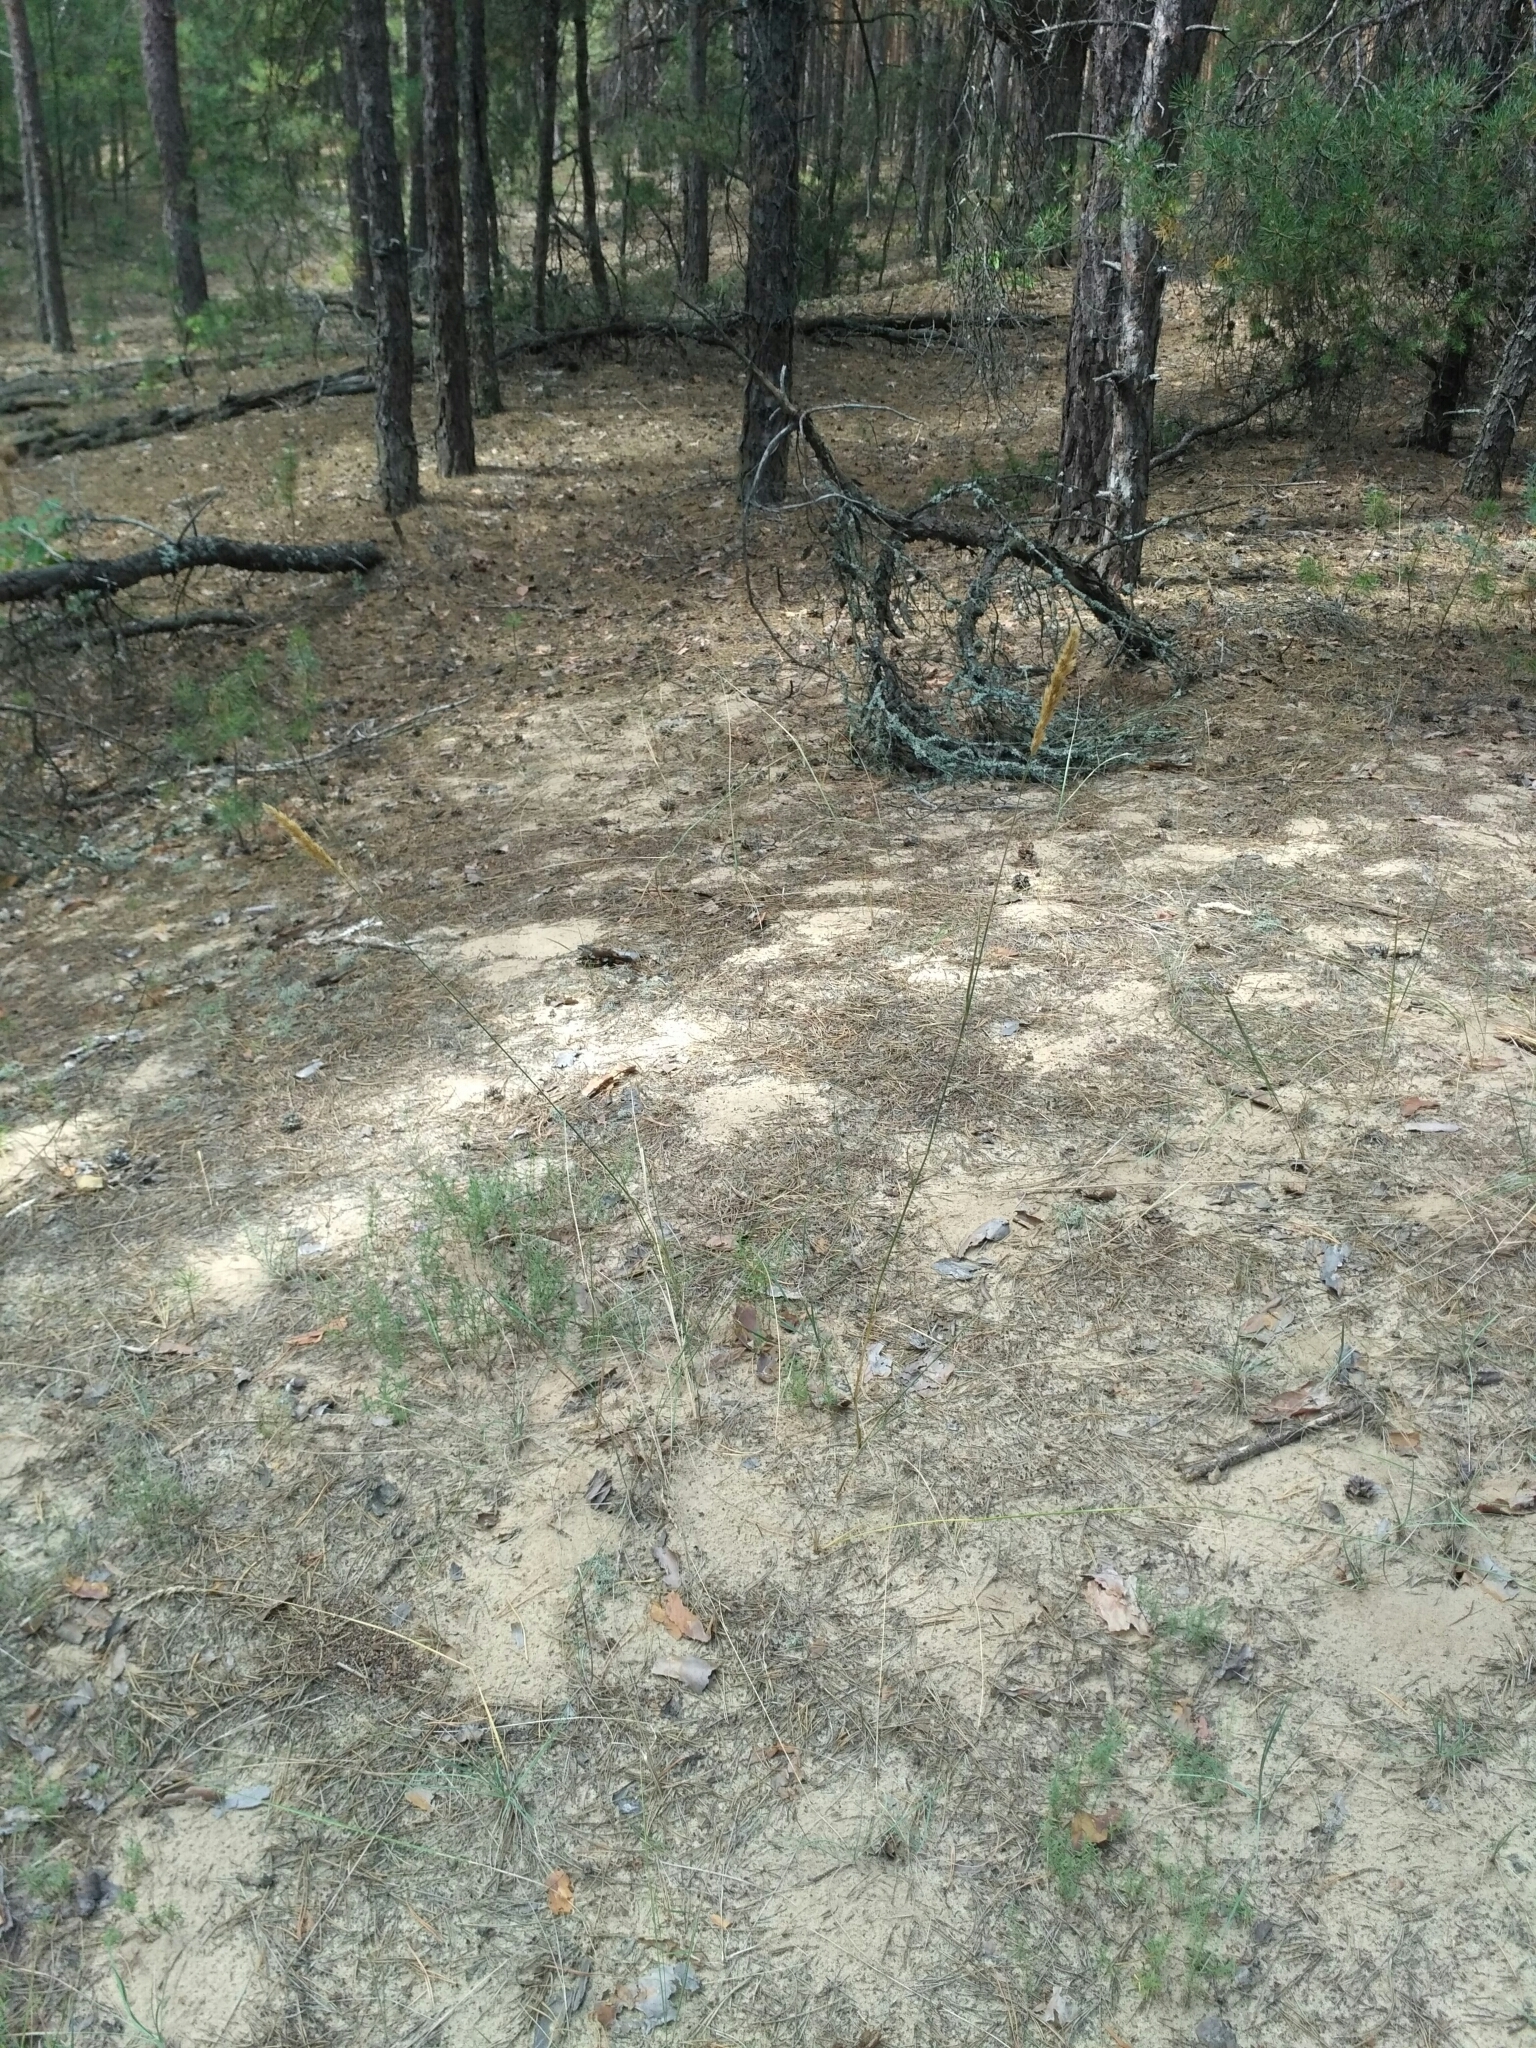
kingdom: Plantae
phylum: Tracheophyta
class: Liliopsida
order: Poales
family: Poaceae
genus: Calamagrostis
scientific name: Calamagrostis epigejos
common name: Wood small-reed
